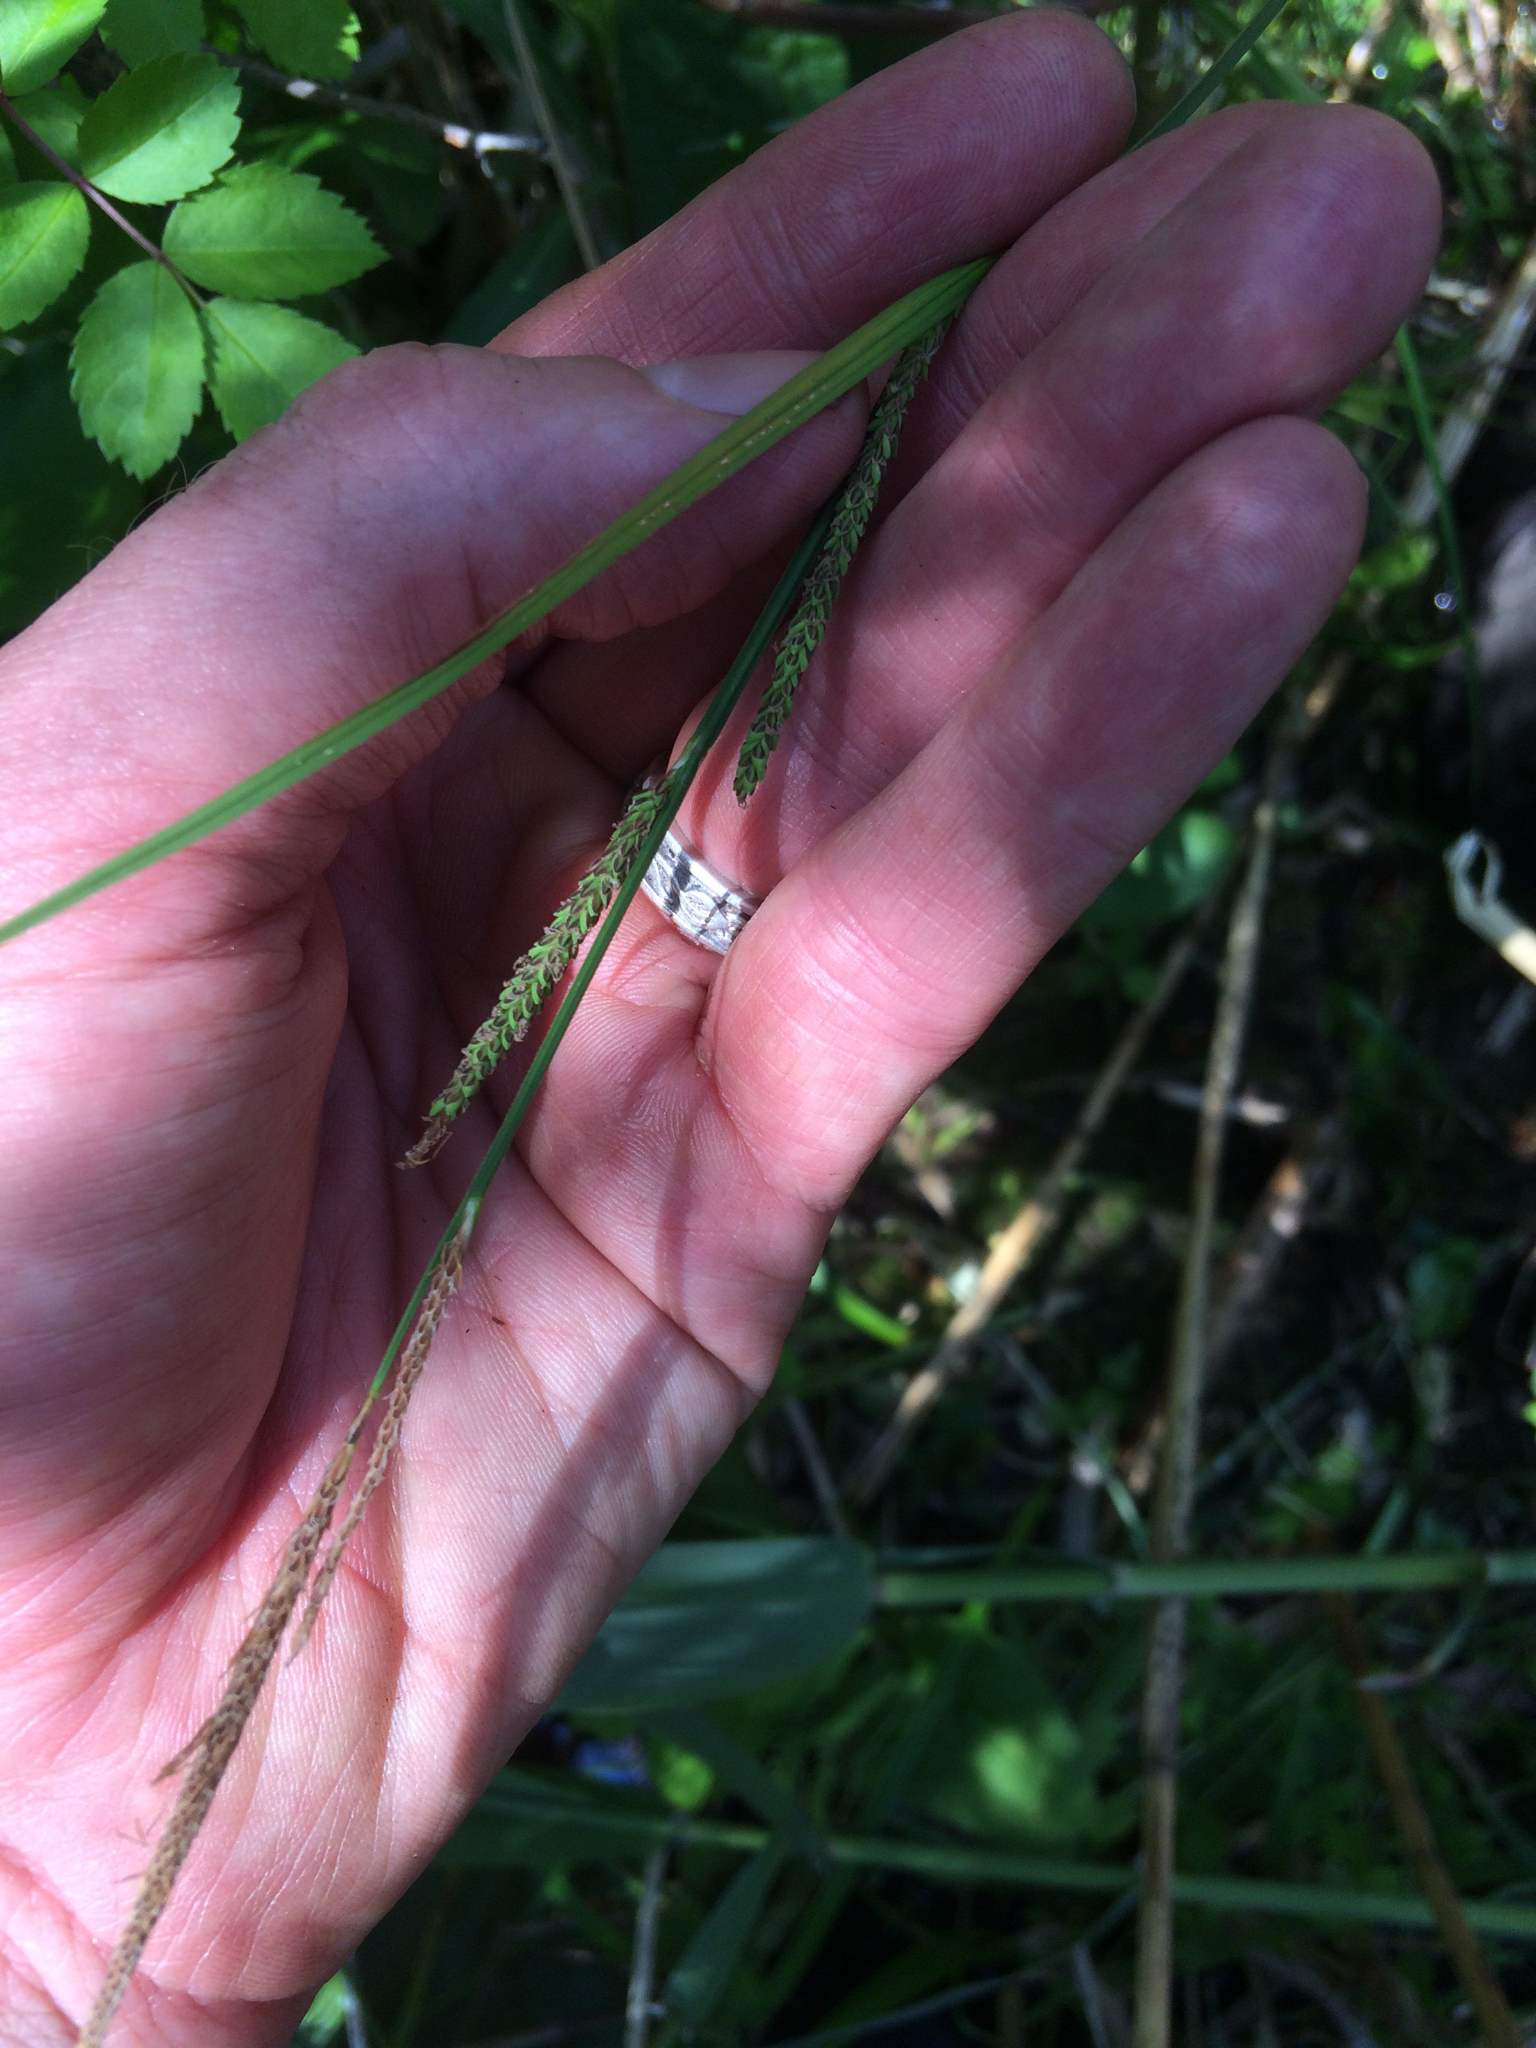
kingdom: Plantae
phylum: Tracheophyta
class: Liliopsida
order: Poales
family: Cyperaceae
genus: Carex
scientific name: Carex stricta
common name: Hummock sedge
